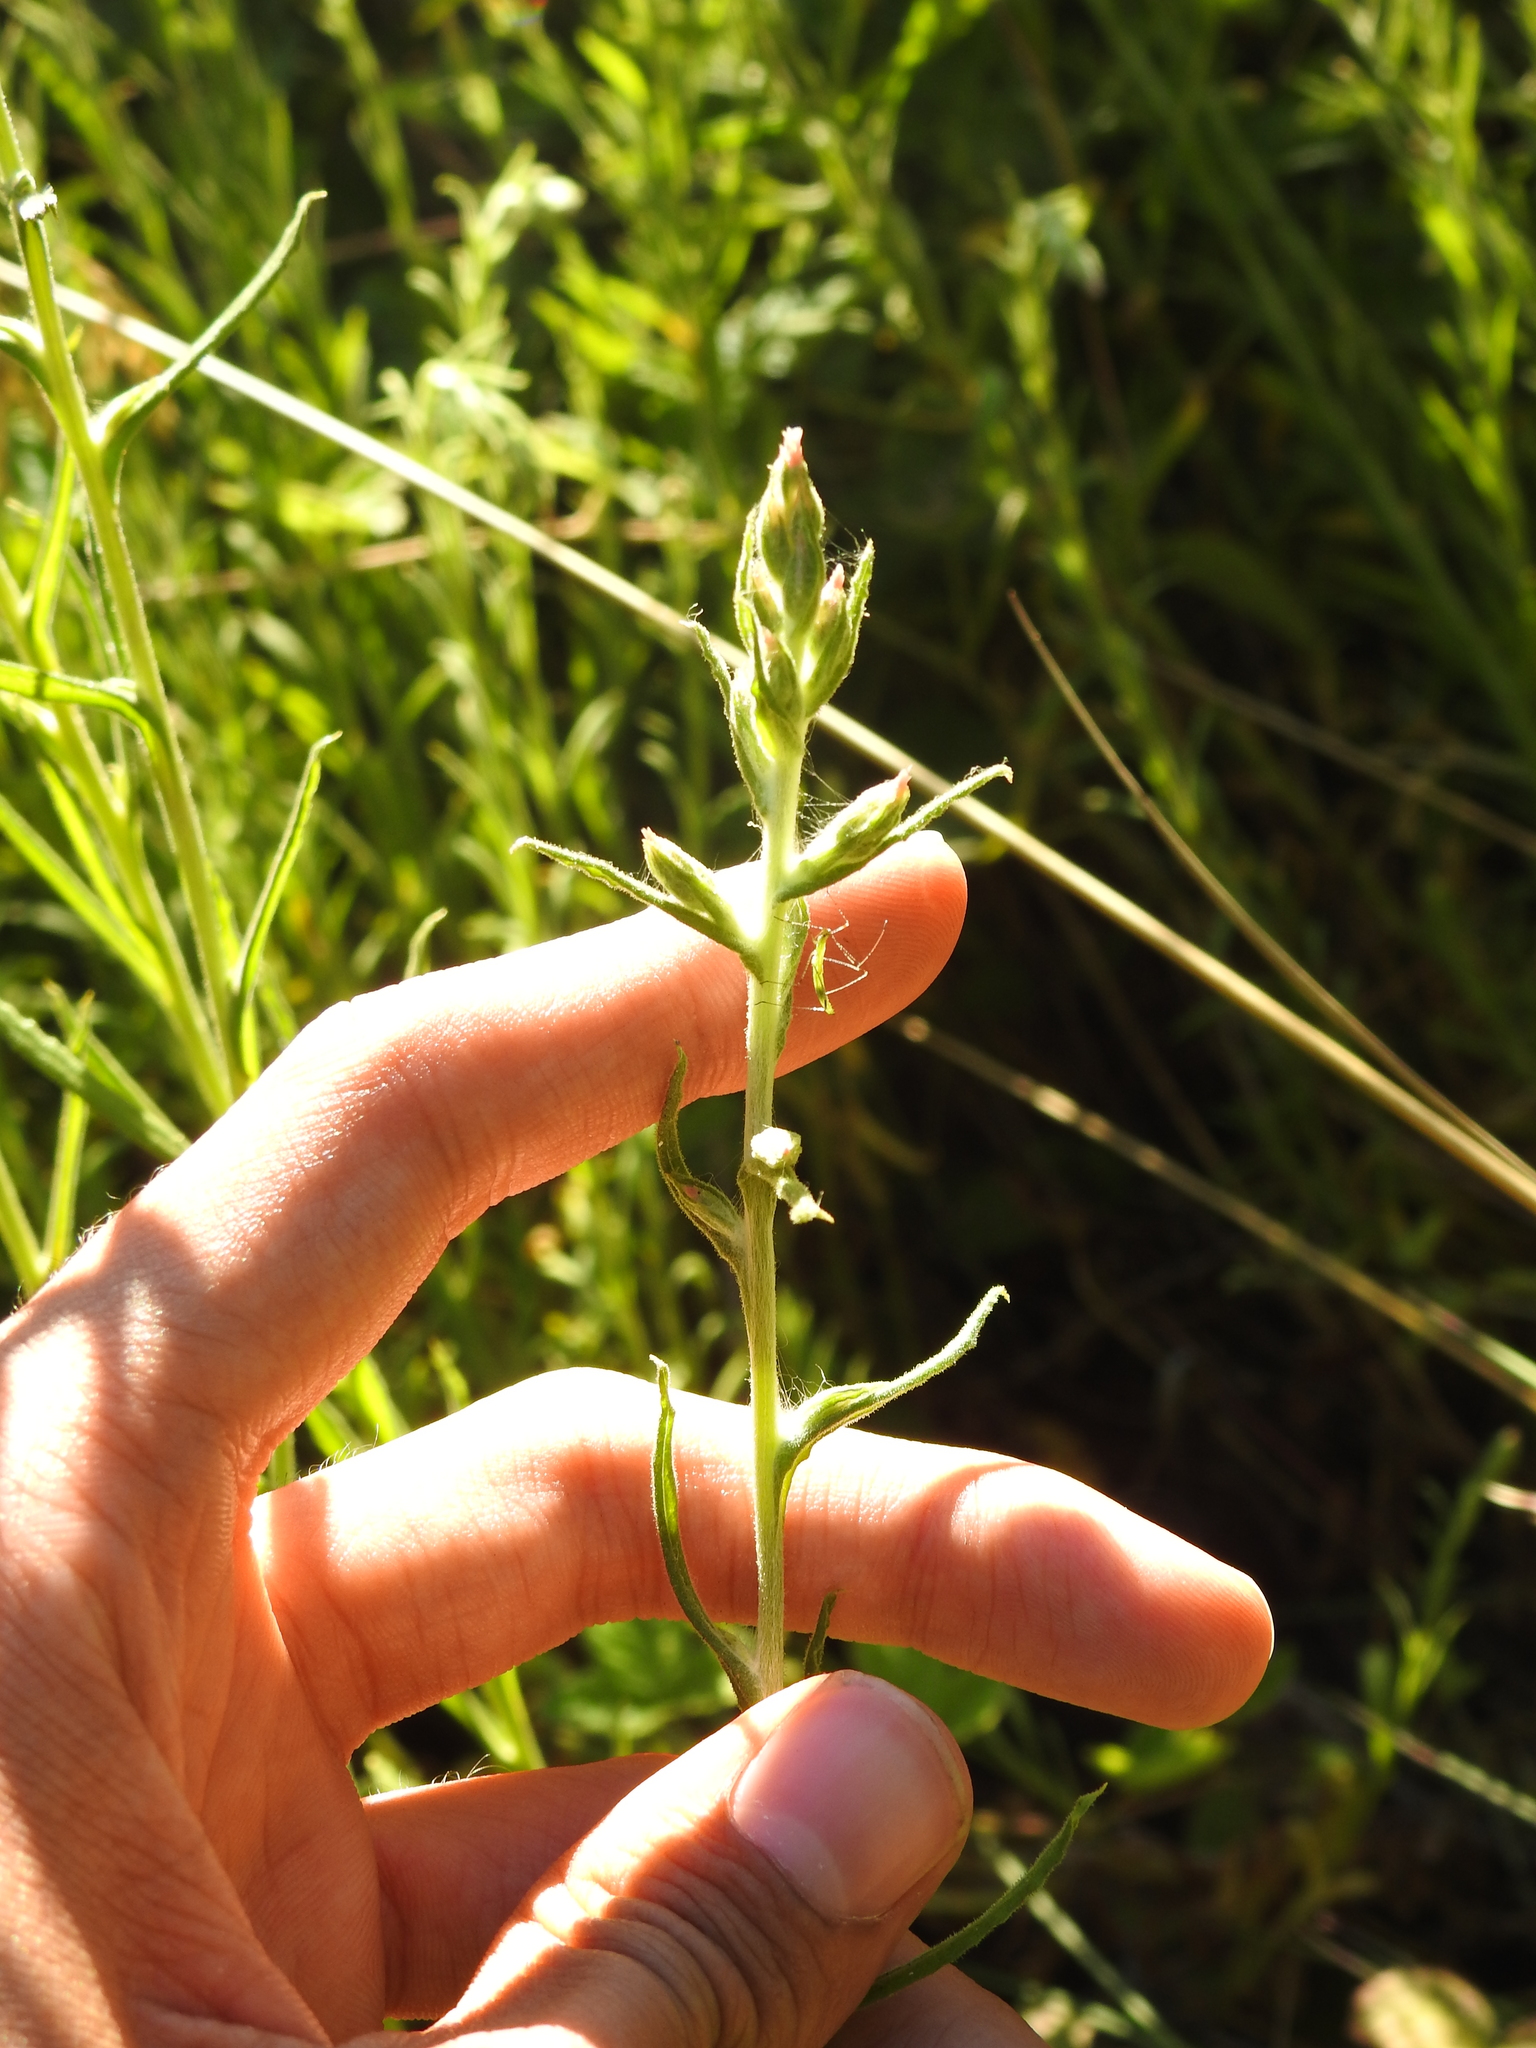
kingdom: Plantae
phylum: Tracheophyta
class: Magnoliopsida
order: Asterales
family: Asteraceae
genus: Pseudognaphalium
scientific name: Pseudognaphalium ramosissimum
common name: Pink rabbit-tobacco
